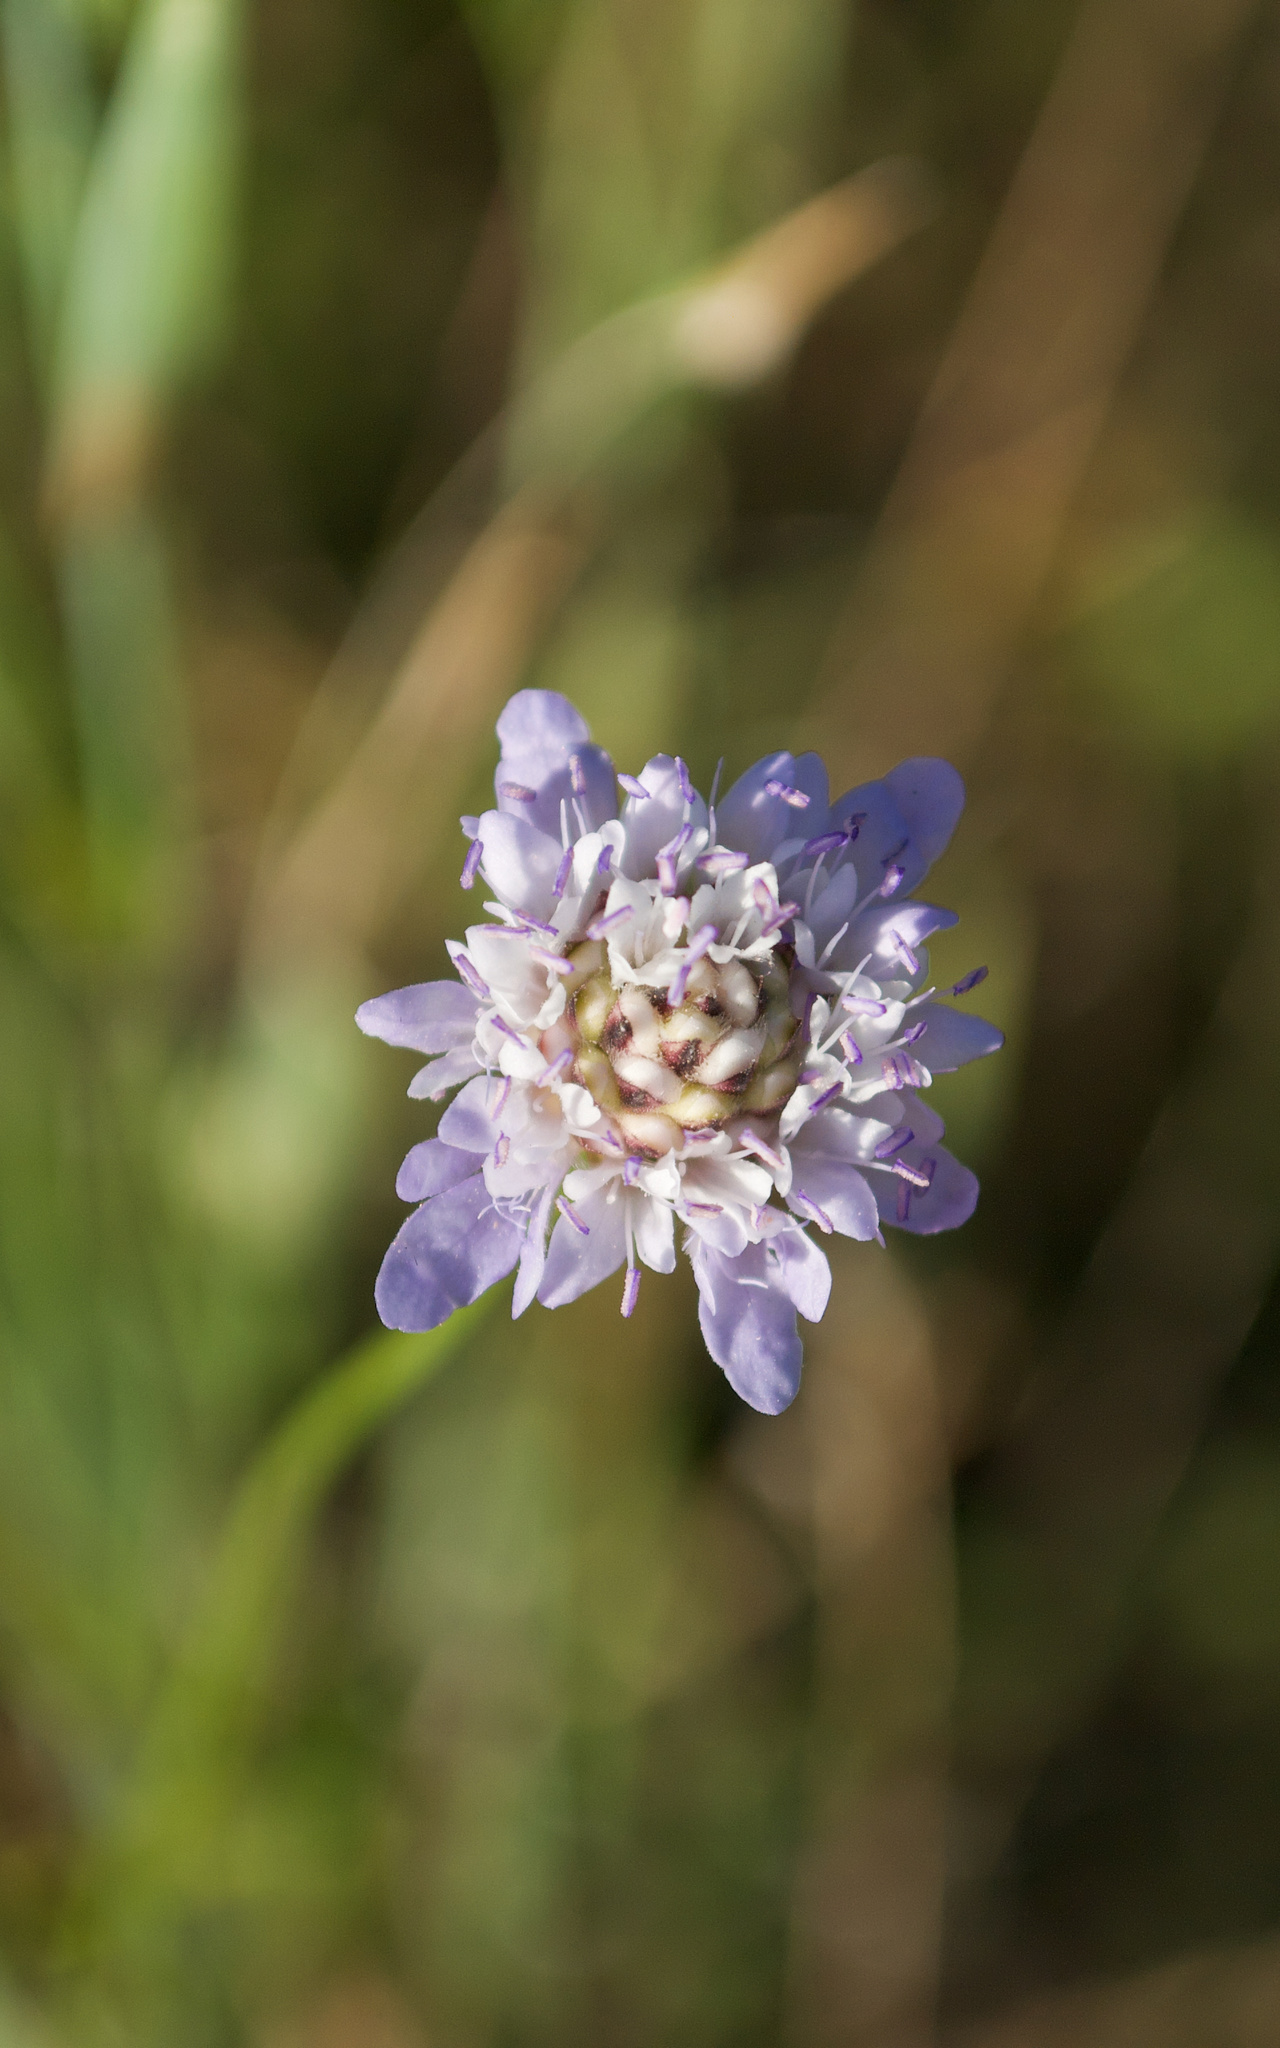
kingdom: Plantae
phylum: Tracheophyta
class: Magnoliopsida
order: Dipsacales
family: Caprifoliaceae
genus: Cephalaria
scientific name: Cephalaria transsylvanica
